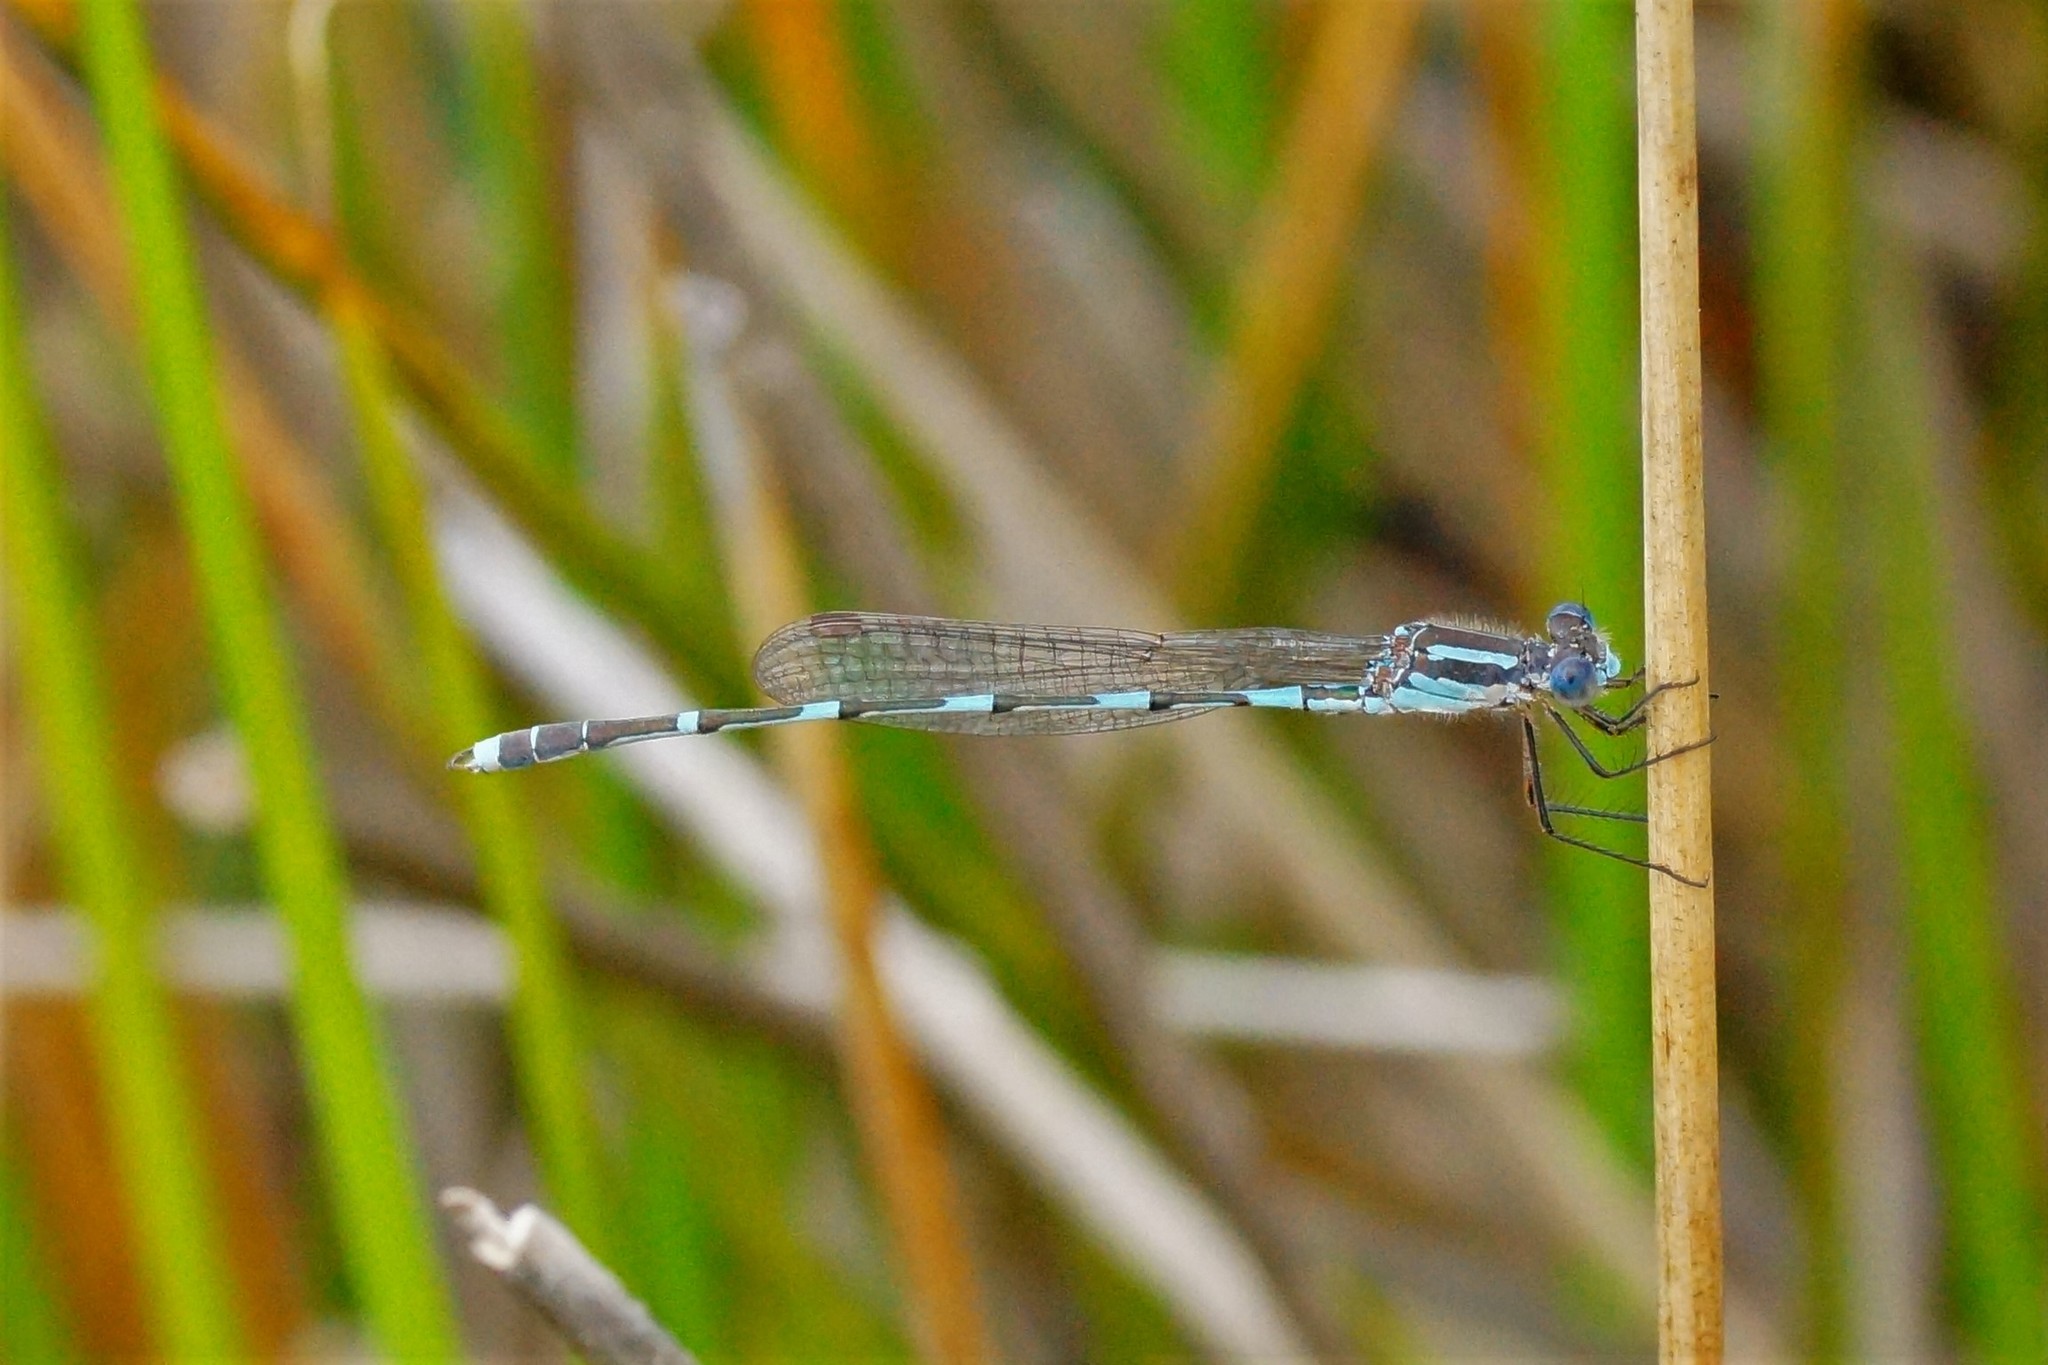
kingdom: Animalia
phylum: Arthropoda
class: Insecta
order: Odonata
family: Lestidae
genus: Austrolestes
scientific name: Austrolestes leda
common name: Wandering ringtail
